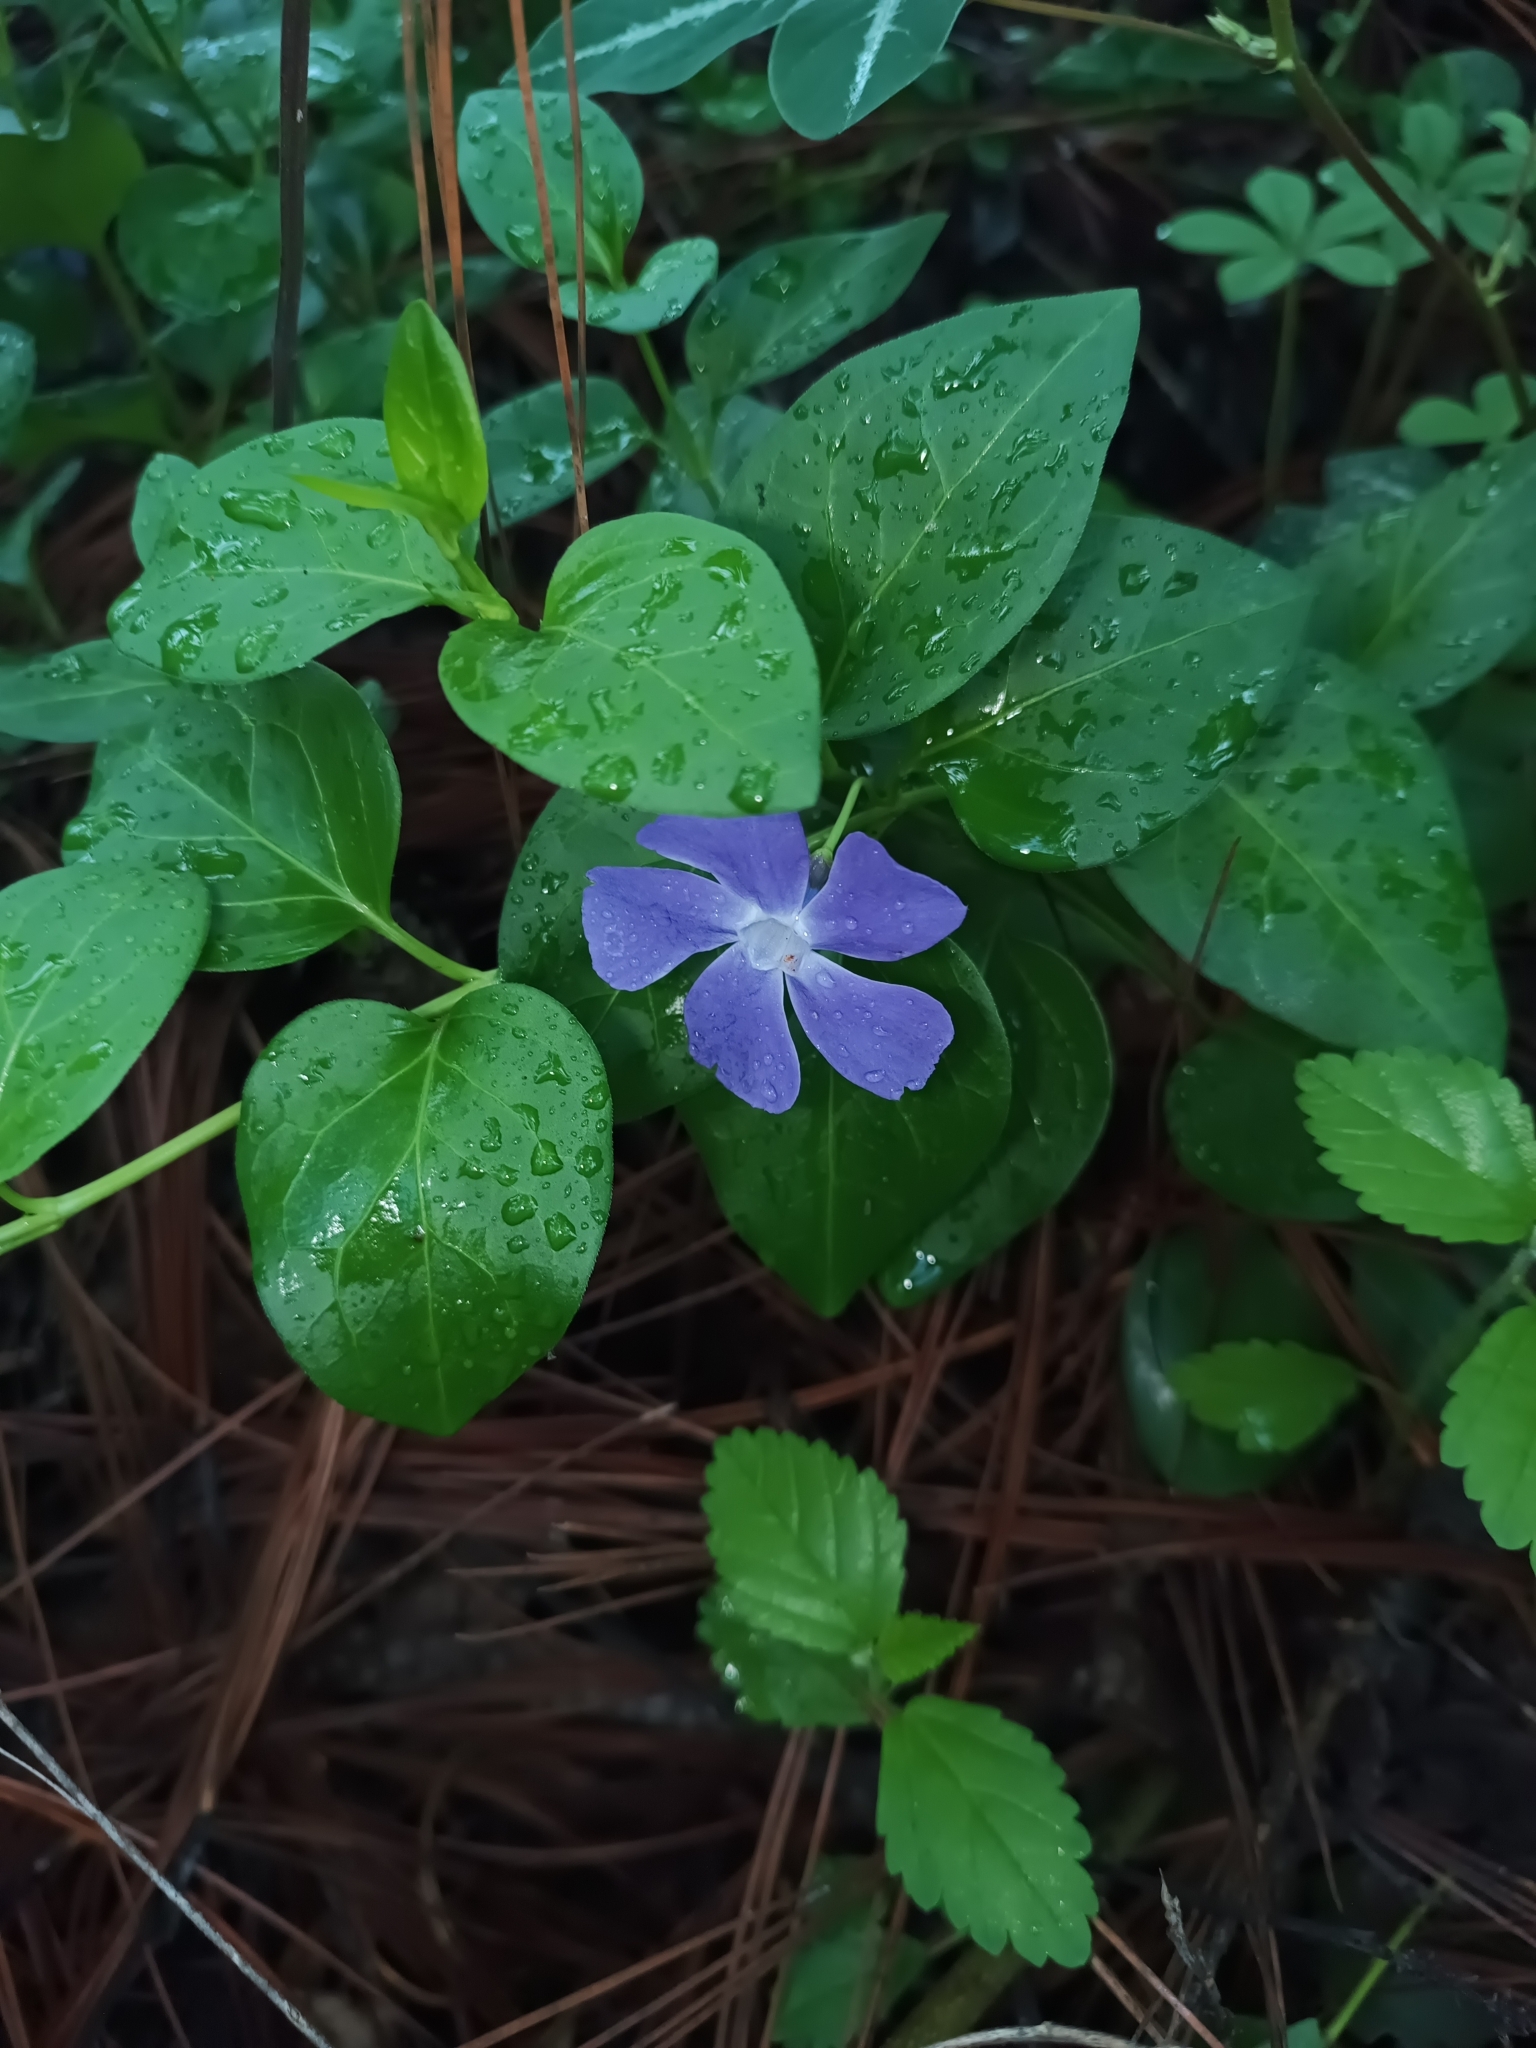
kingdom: Plantae
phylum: Tracheophyta
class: Magnoliopsida
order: Gentianales
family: Apocynaceae
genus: Vinca
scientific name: Vinca major
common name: Greater periwinkle
